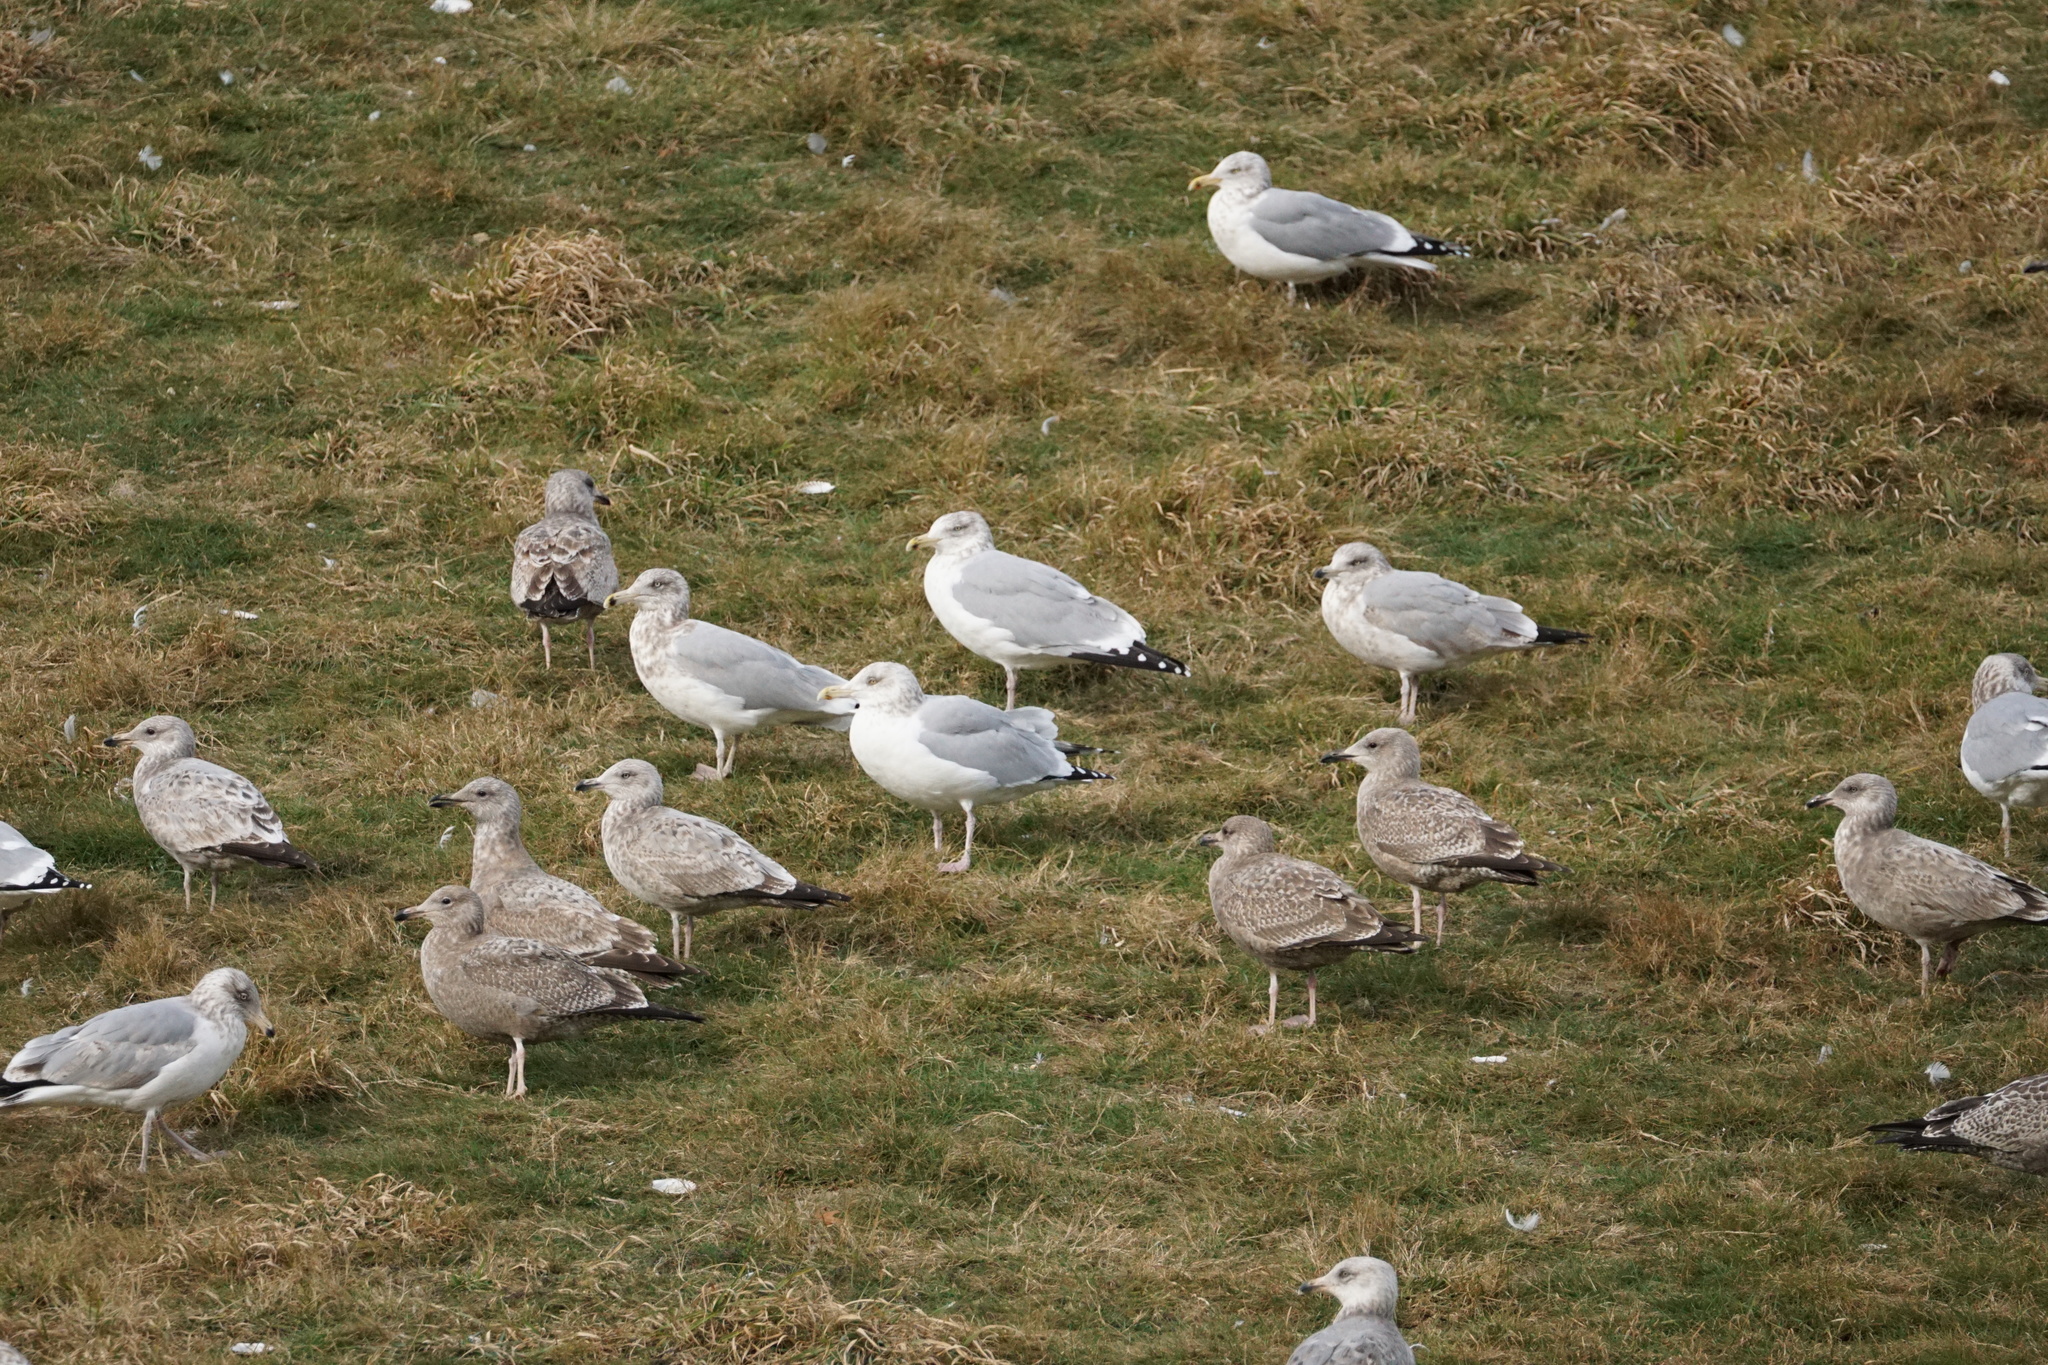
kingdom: Animalia
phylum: Chordata
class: Aves
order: Charadriiformes
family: Laridae
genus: Larus
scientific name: Larus argentatus
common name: Herring gull
